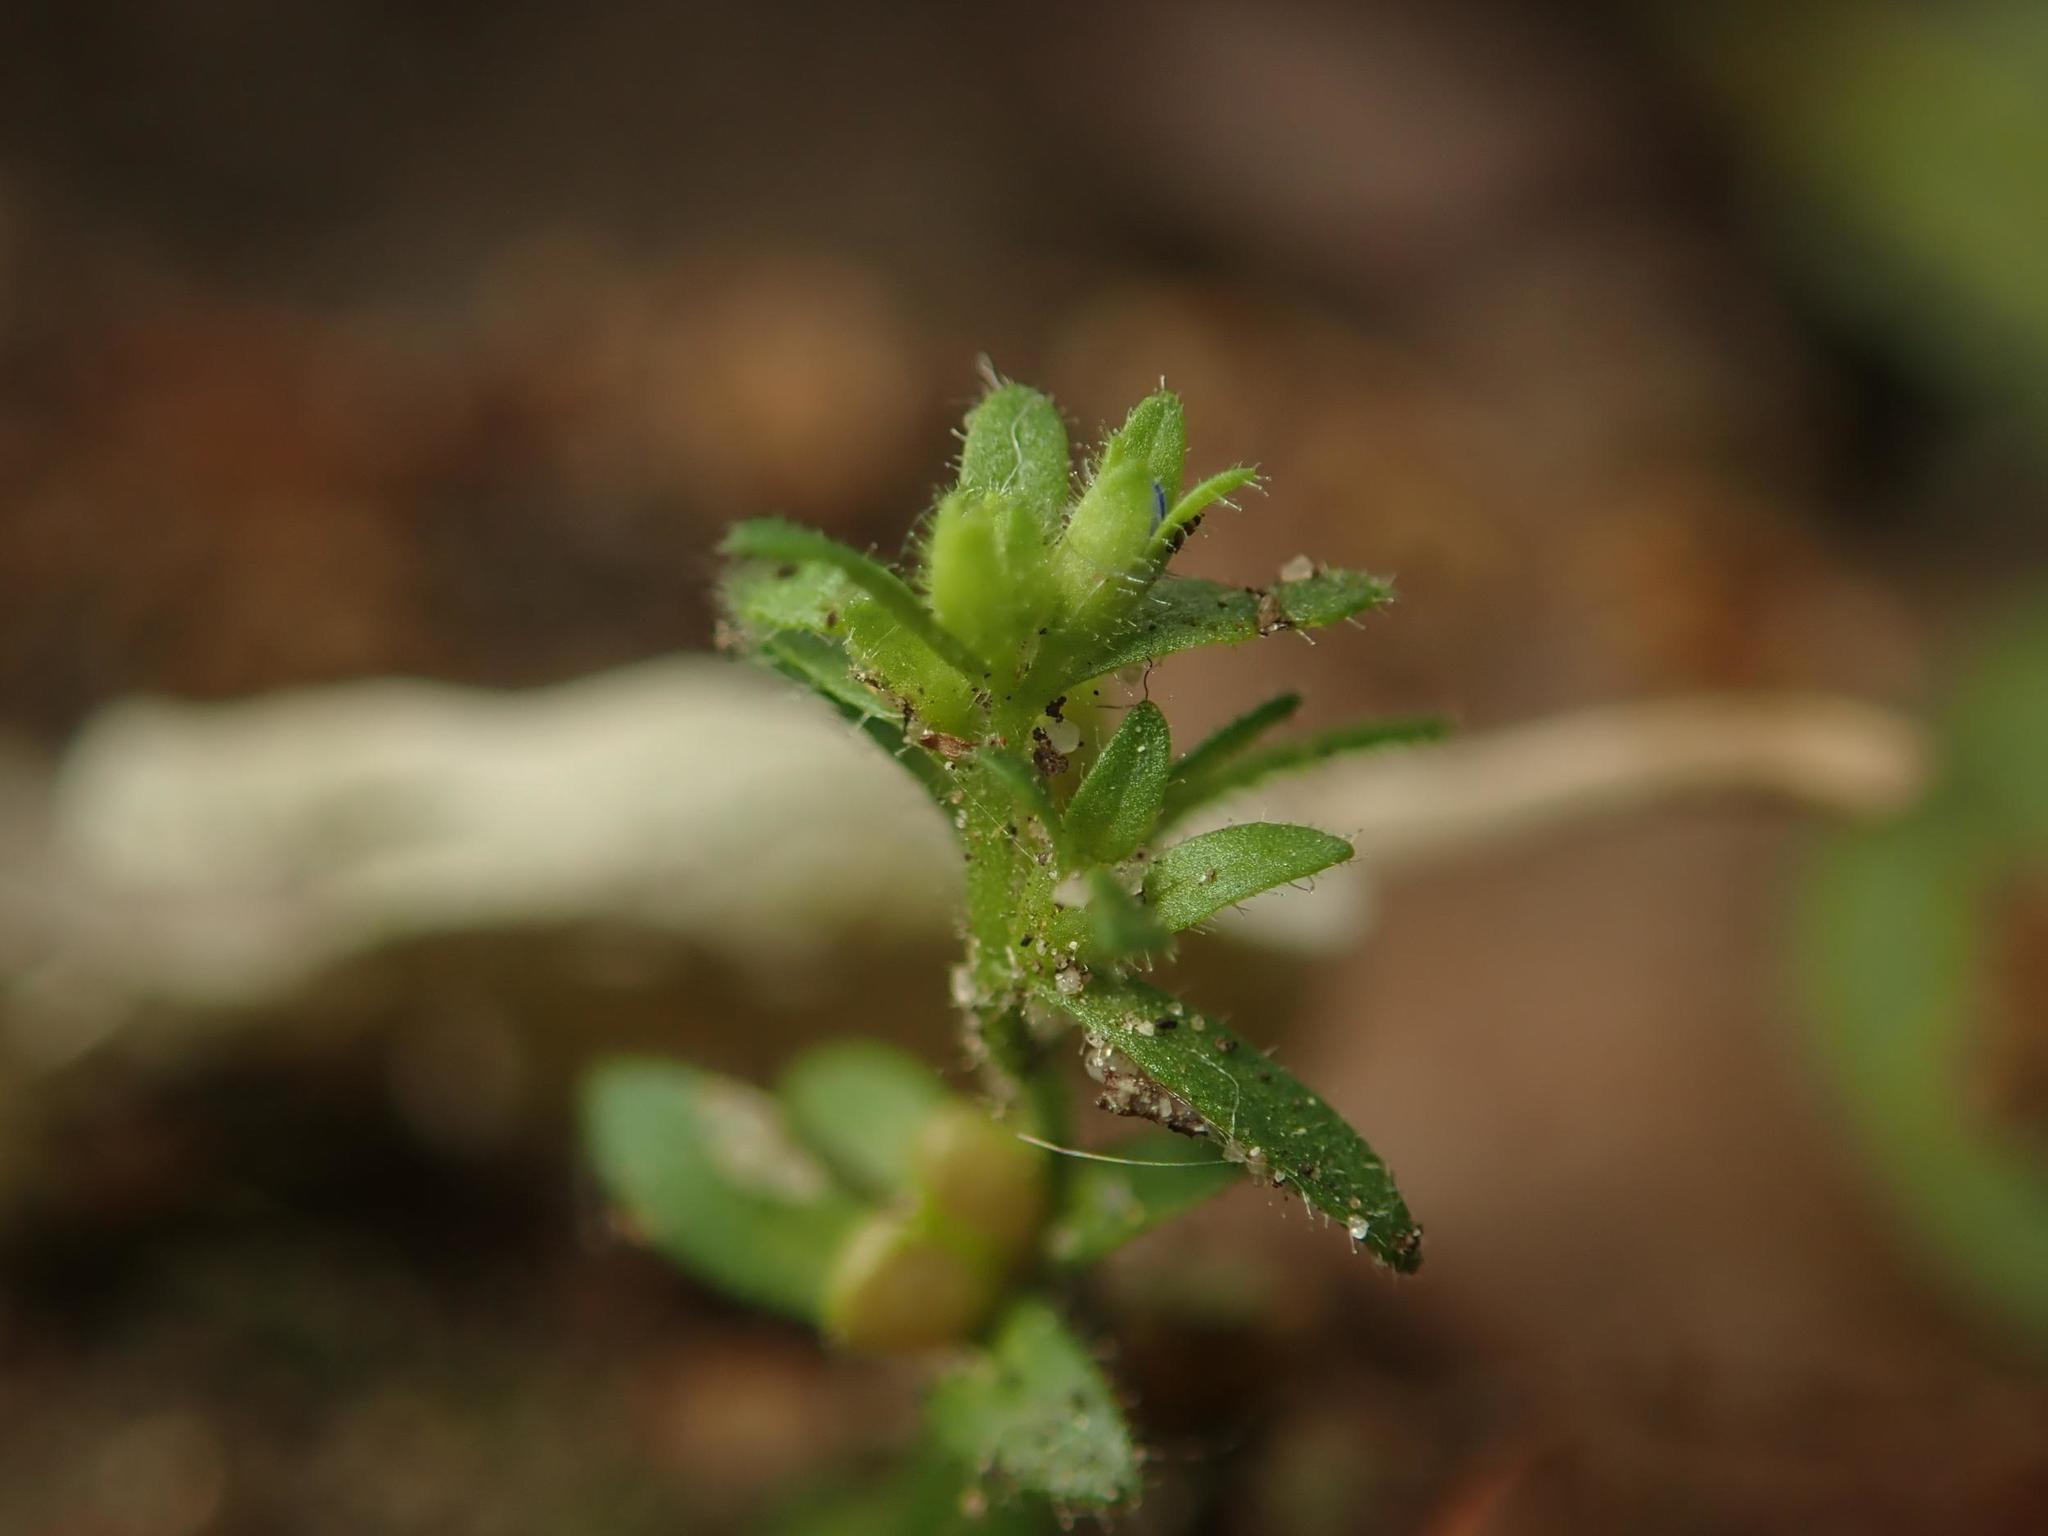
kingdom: Plantae
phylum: Tracheophyta
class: Magnoliopsida
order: Lamiales
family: Plantaginaceae
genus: Veronica
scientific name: Veronica arvensis
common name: Corn speedwell
